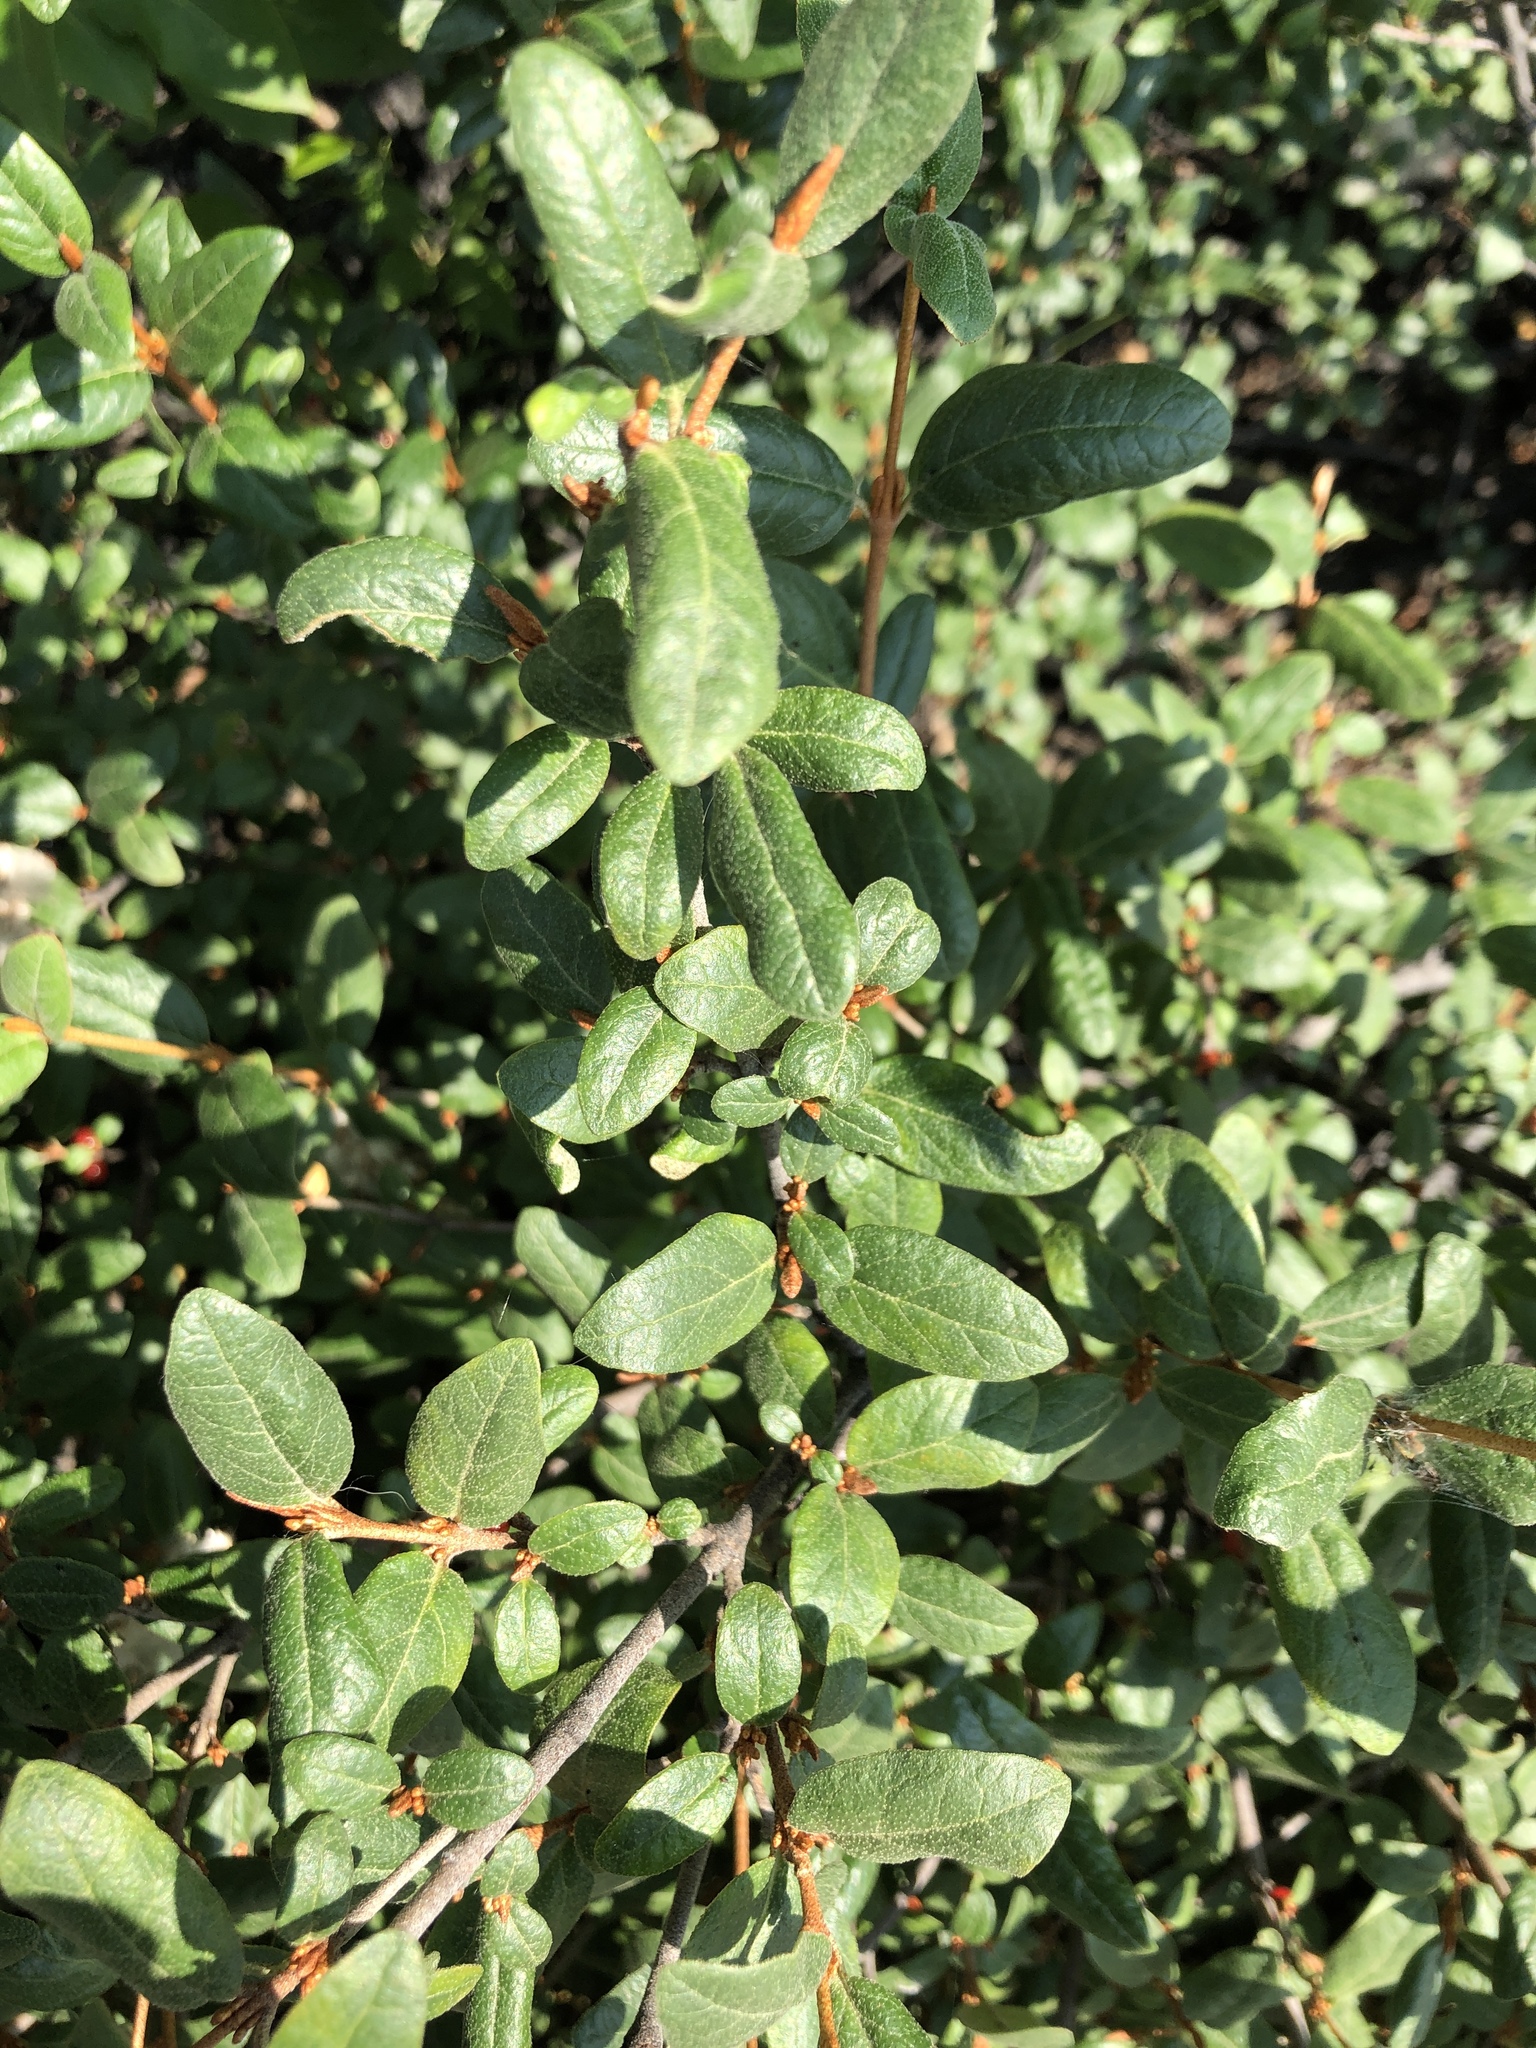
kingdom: Plantae
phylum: Tracheophyta
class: Magnoliopsida
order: Rosales
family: Elaeagnaceae
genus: Shepherdia
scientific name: Shepherdia canadensis
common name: Soapberry
